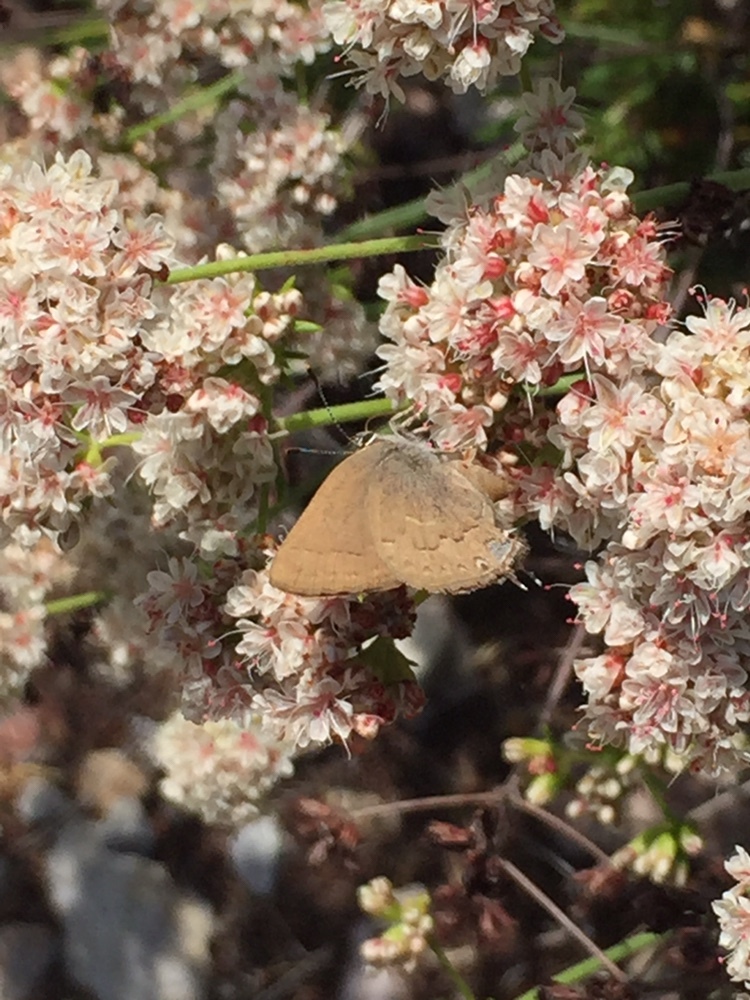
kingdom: Animalia
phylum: Arthropoda
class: Insecta
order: Lepidoptera
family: Lycaenidae
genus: Strymon
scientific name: Strymon saepium
